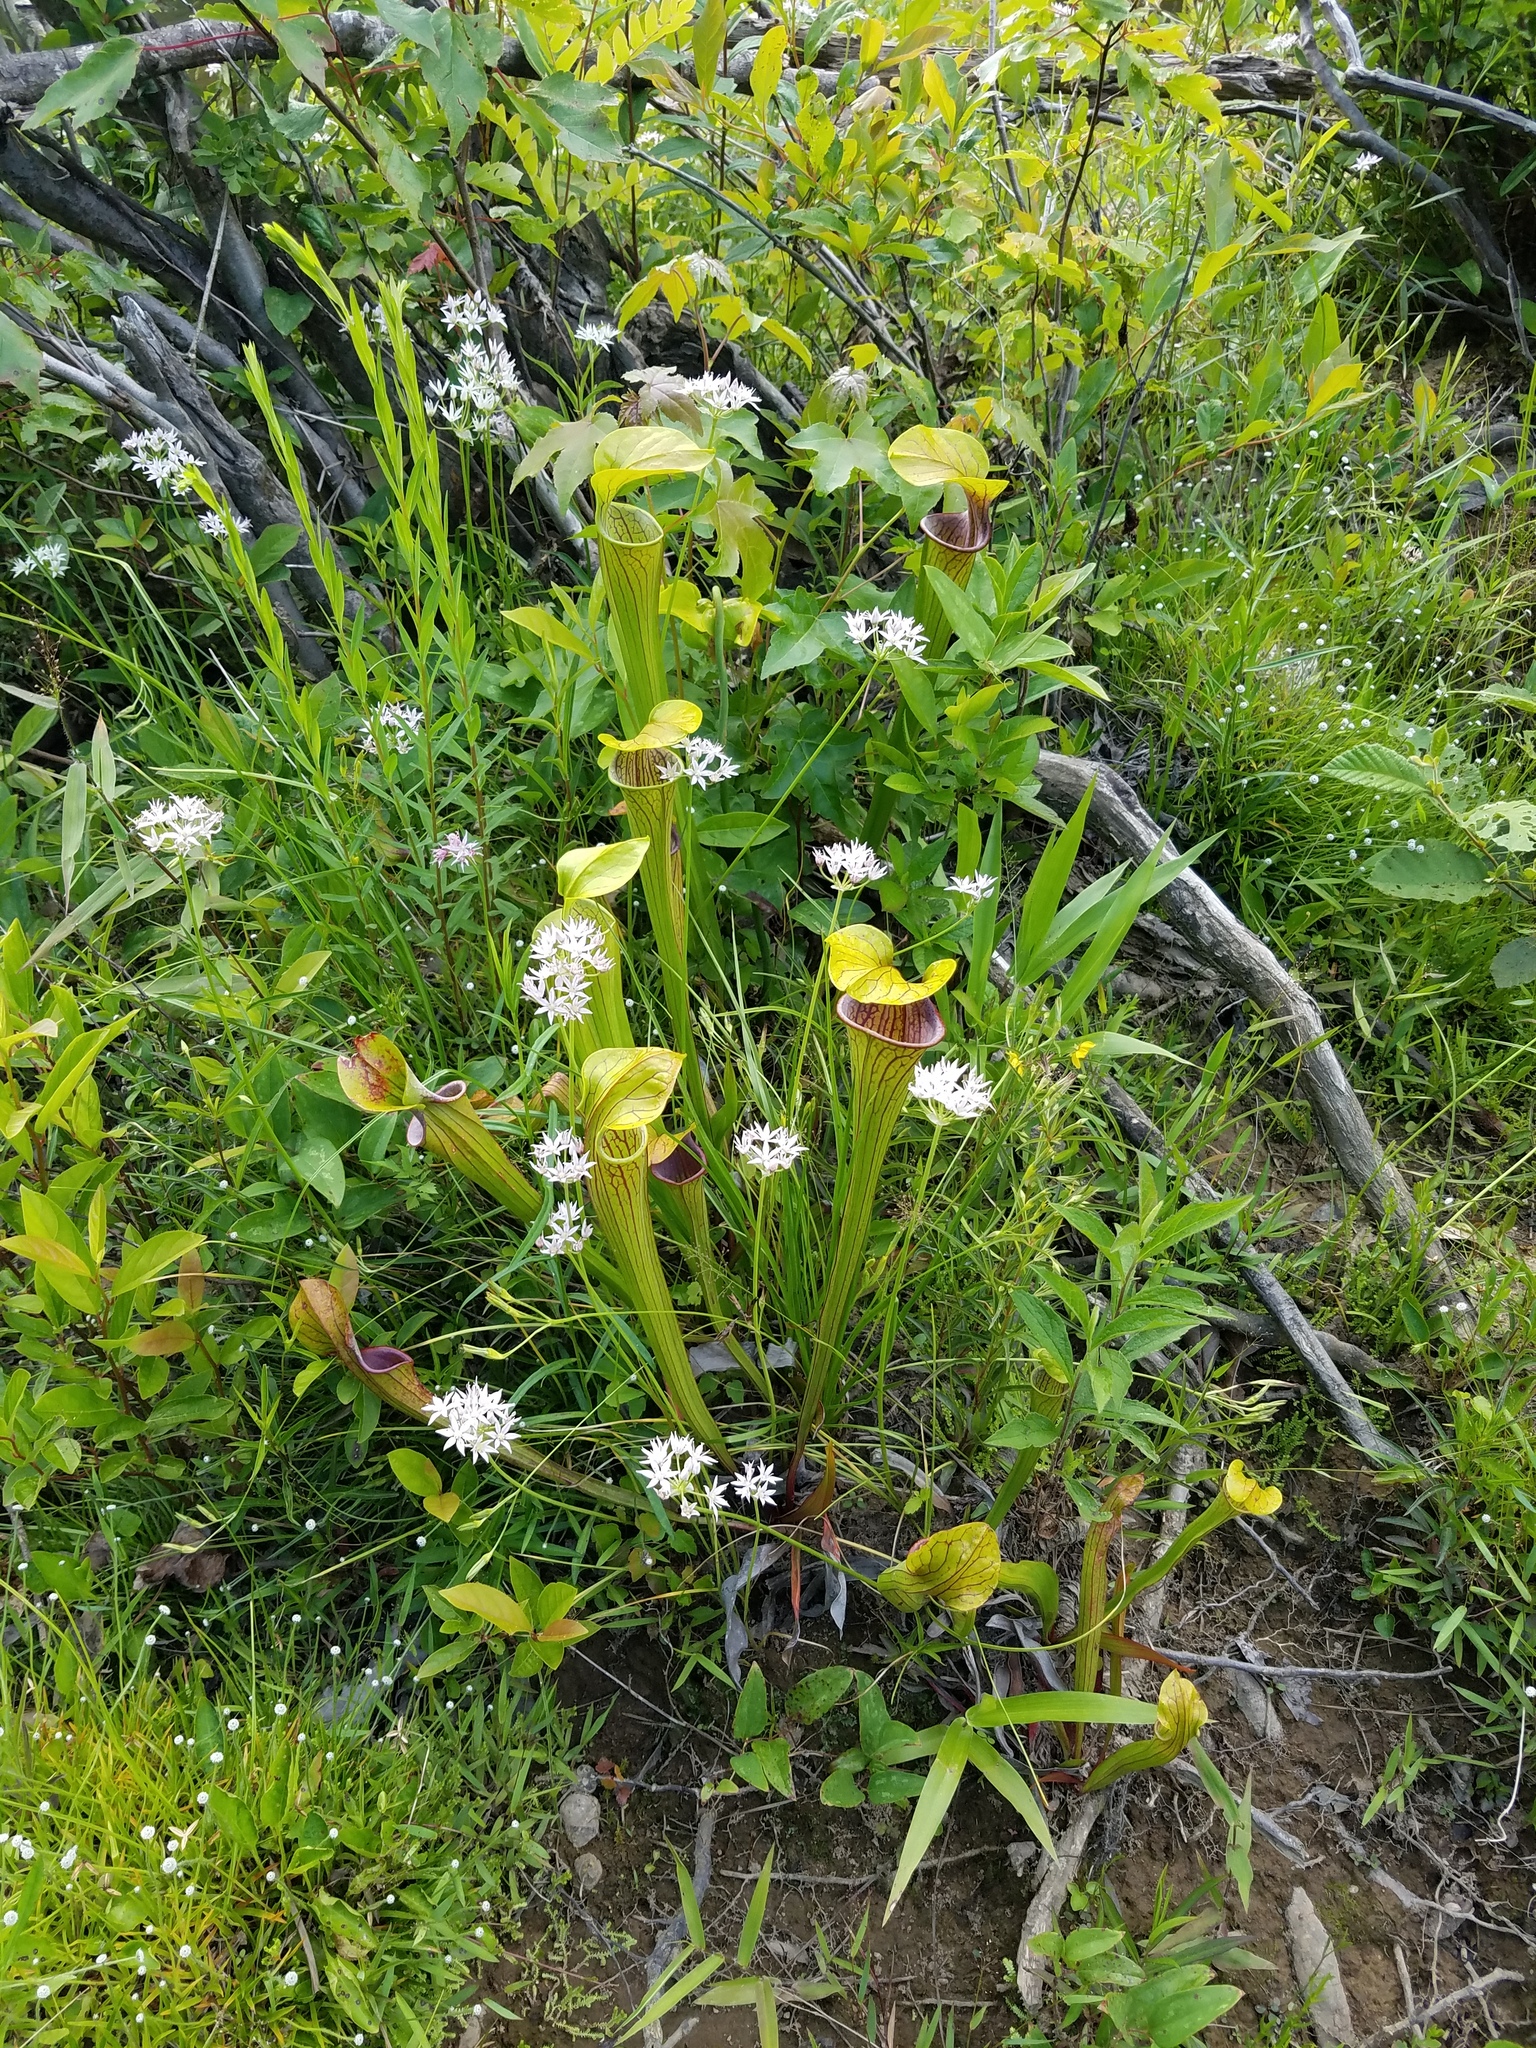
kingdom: Plantae
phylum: Tracheophyta
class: Magnoliopsida
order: Ericales
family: Sarraceniaceae
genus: Sarracenia
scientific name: Sarracenia oreophila
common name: Green pitcherplant
